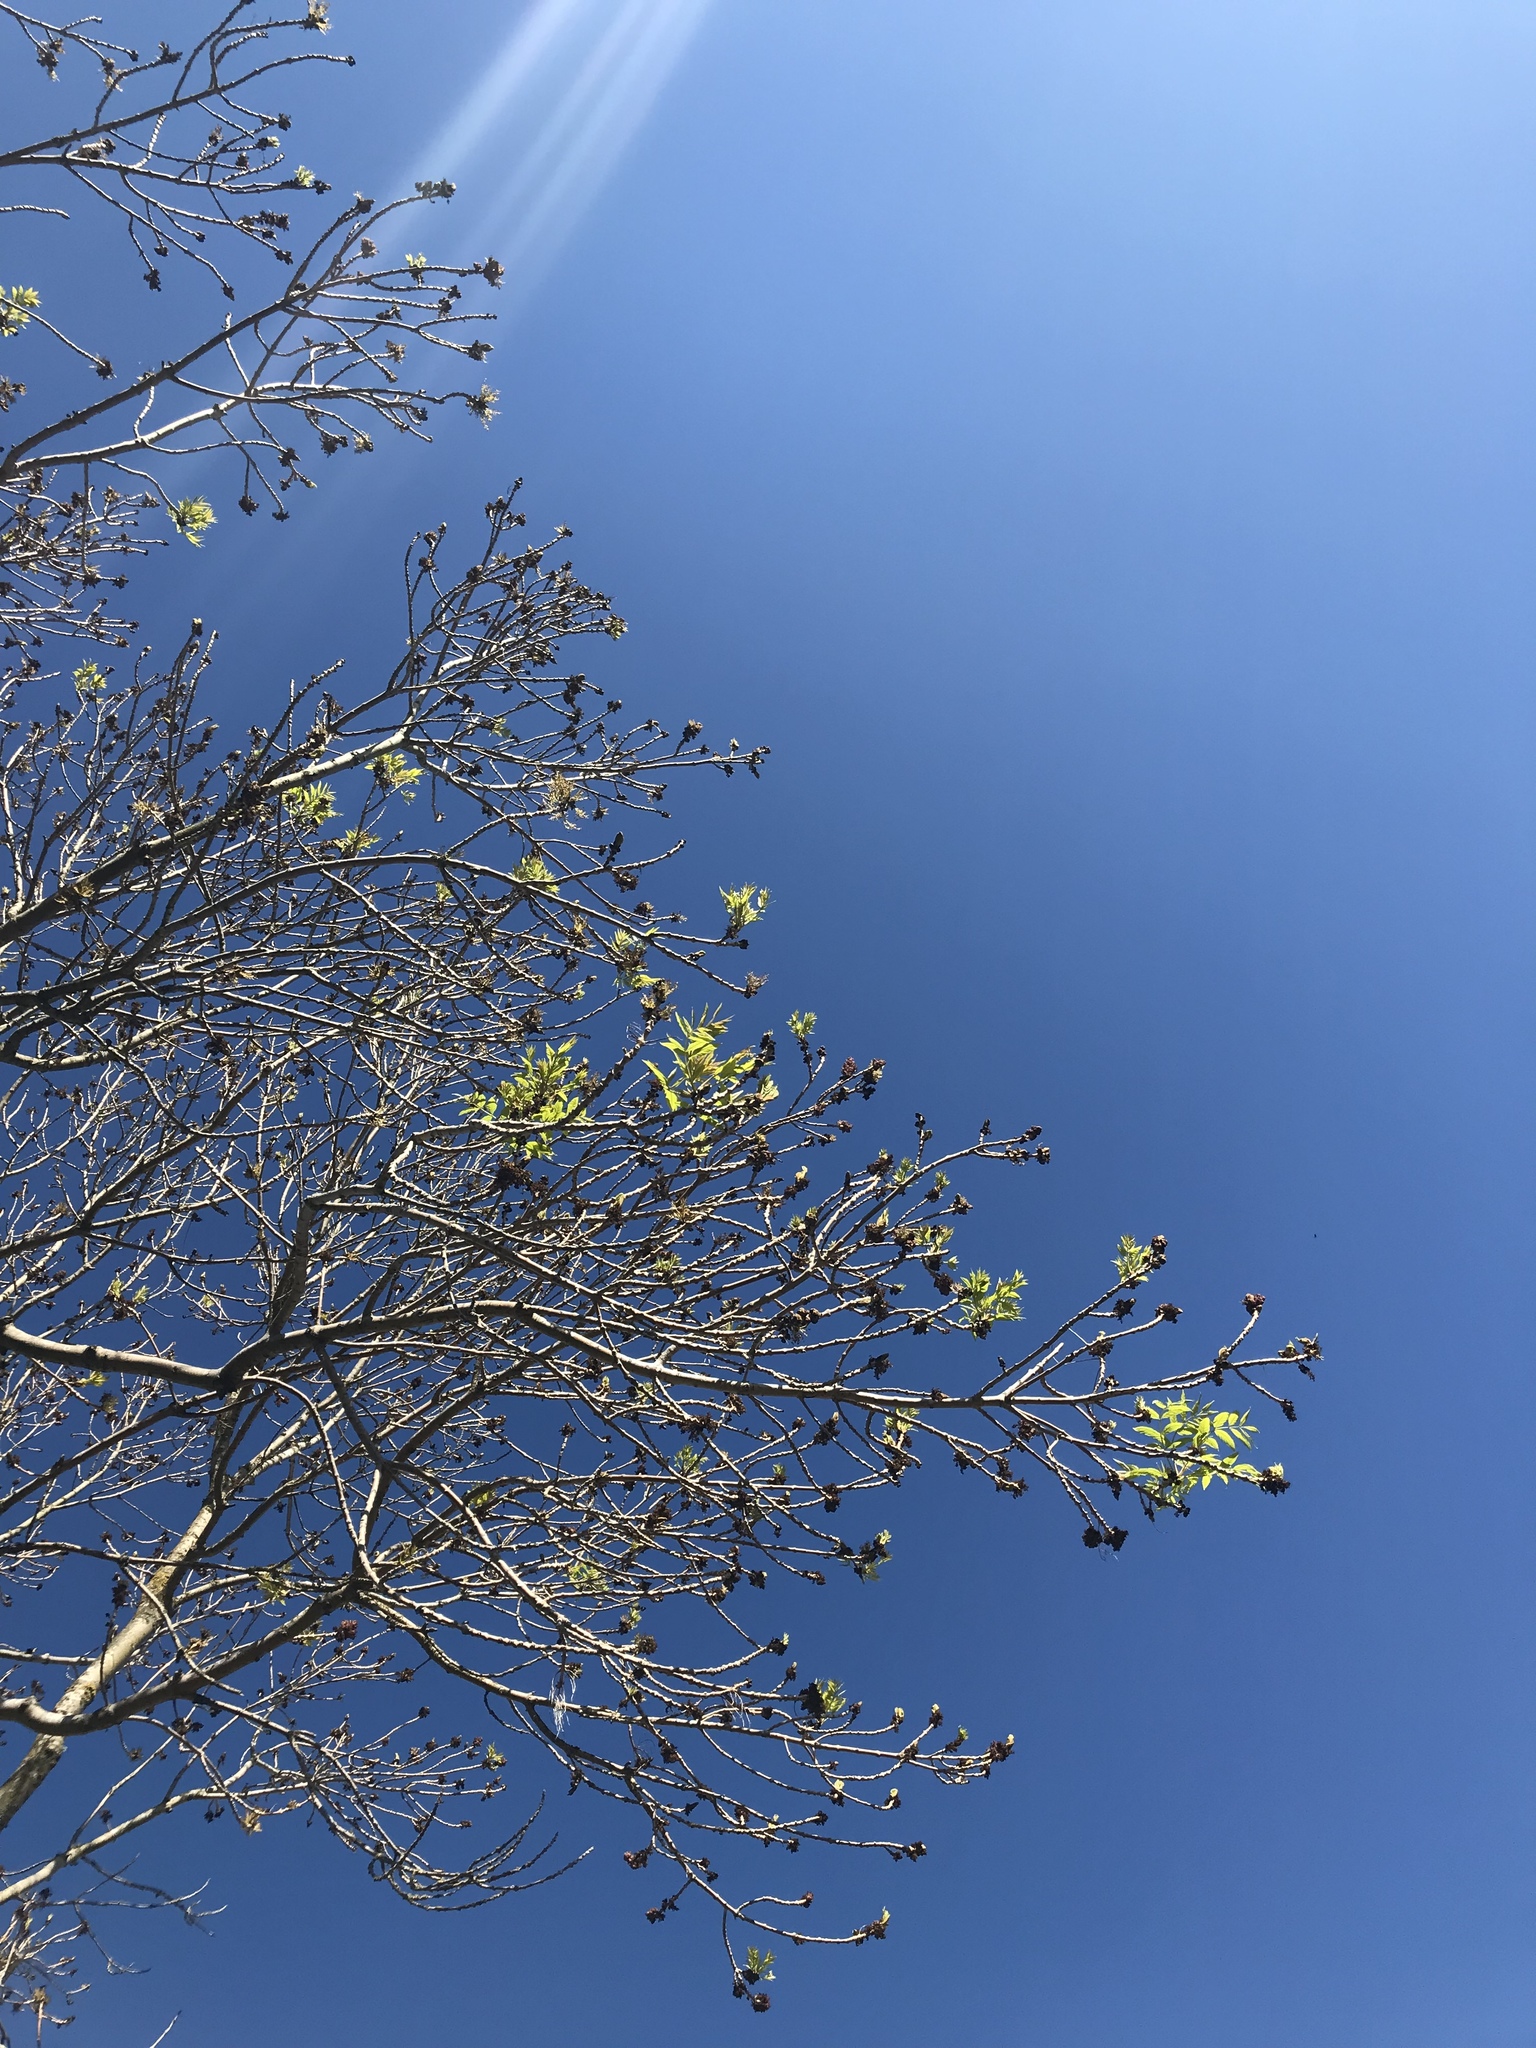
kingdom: Plantae
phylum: Tracheophyta
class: Magnoliopsida
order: Lamiales
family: Oleaceae
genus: Fraxinus
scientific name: Fraxinus ornus
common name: Manna ash
